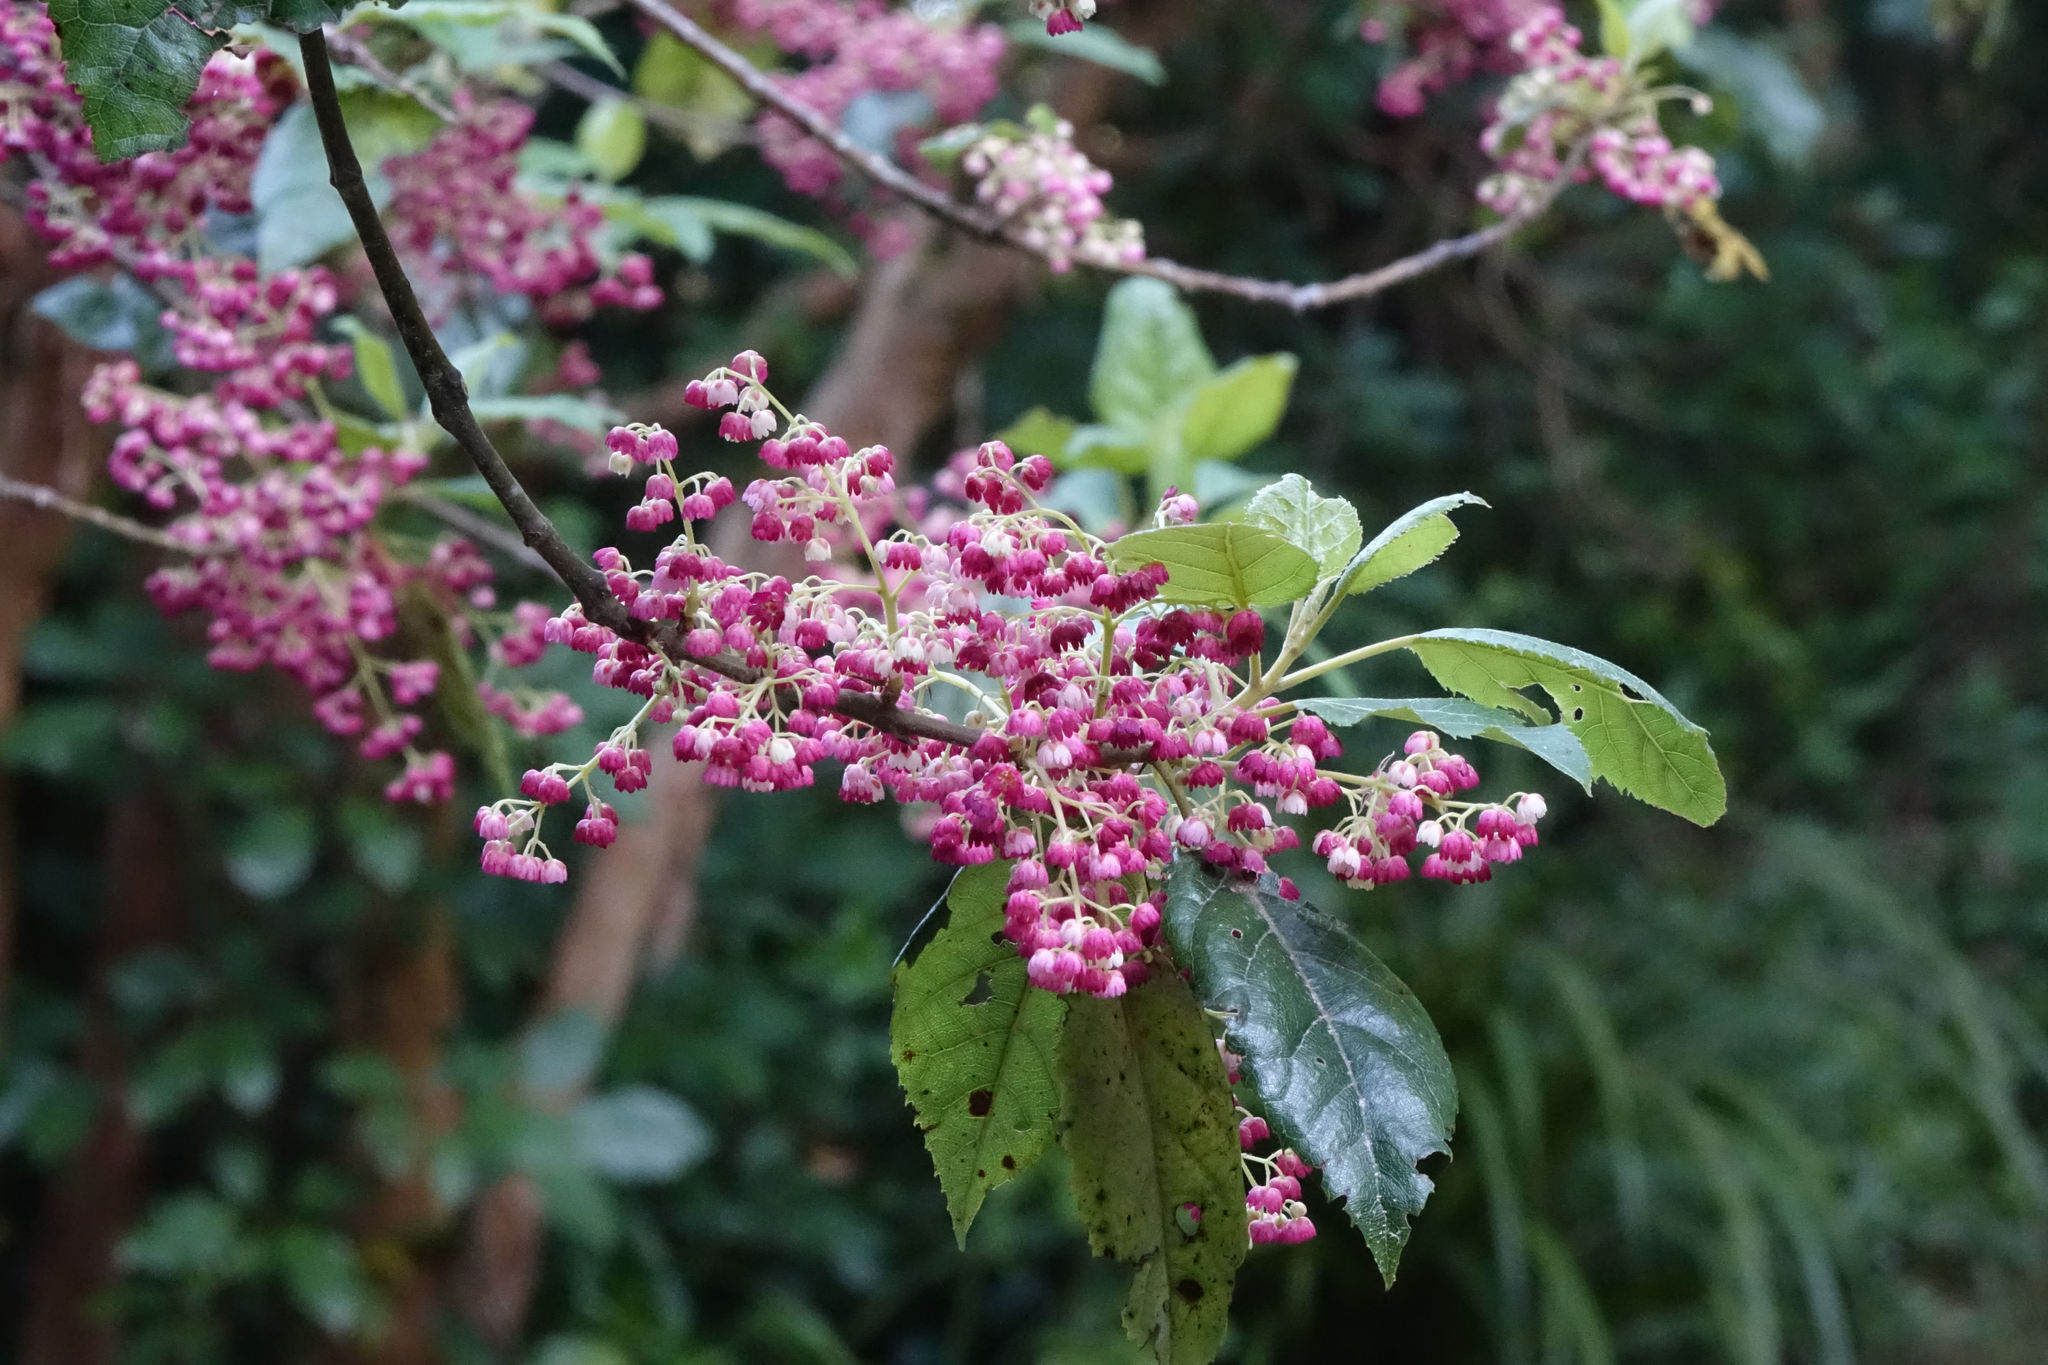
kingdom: Plantae
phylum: Tracheophyta
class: Magnoliopsida
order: Oxalidales
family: Elaeocarpaceae
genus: Aristotelia
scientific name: Aristotelia serrata
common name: New zealand wineberry
